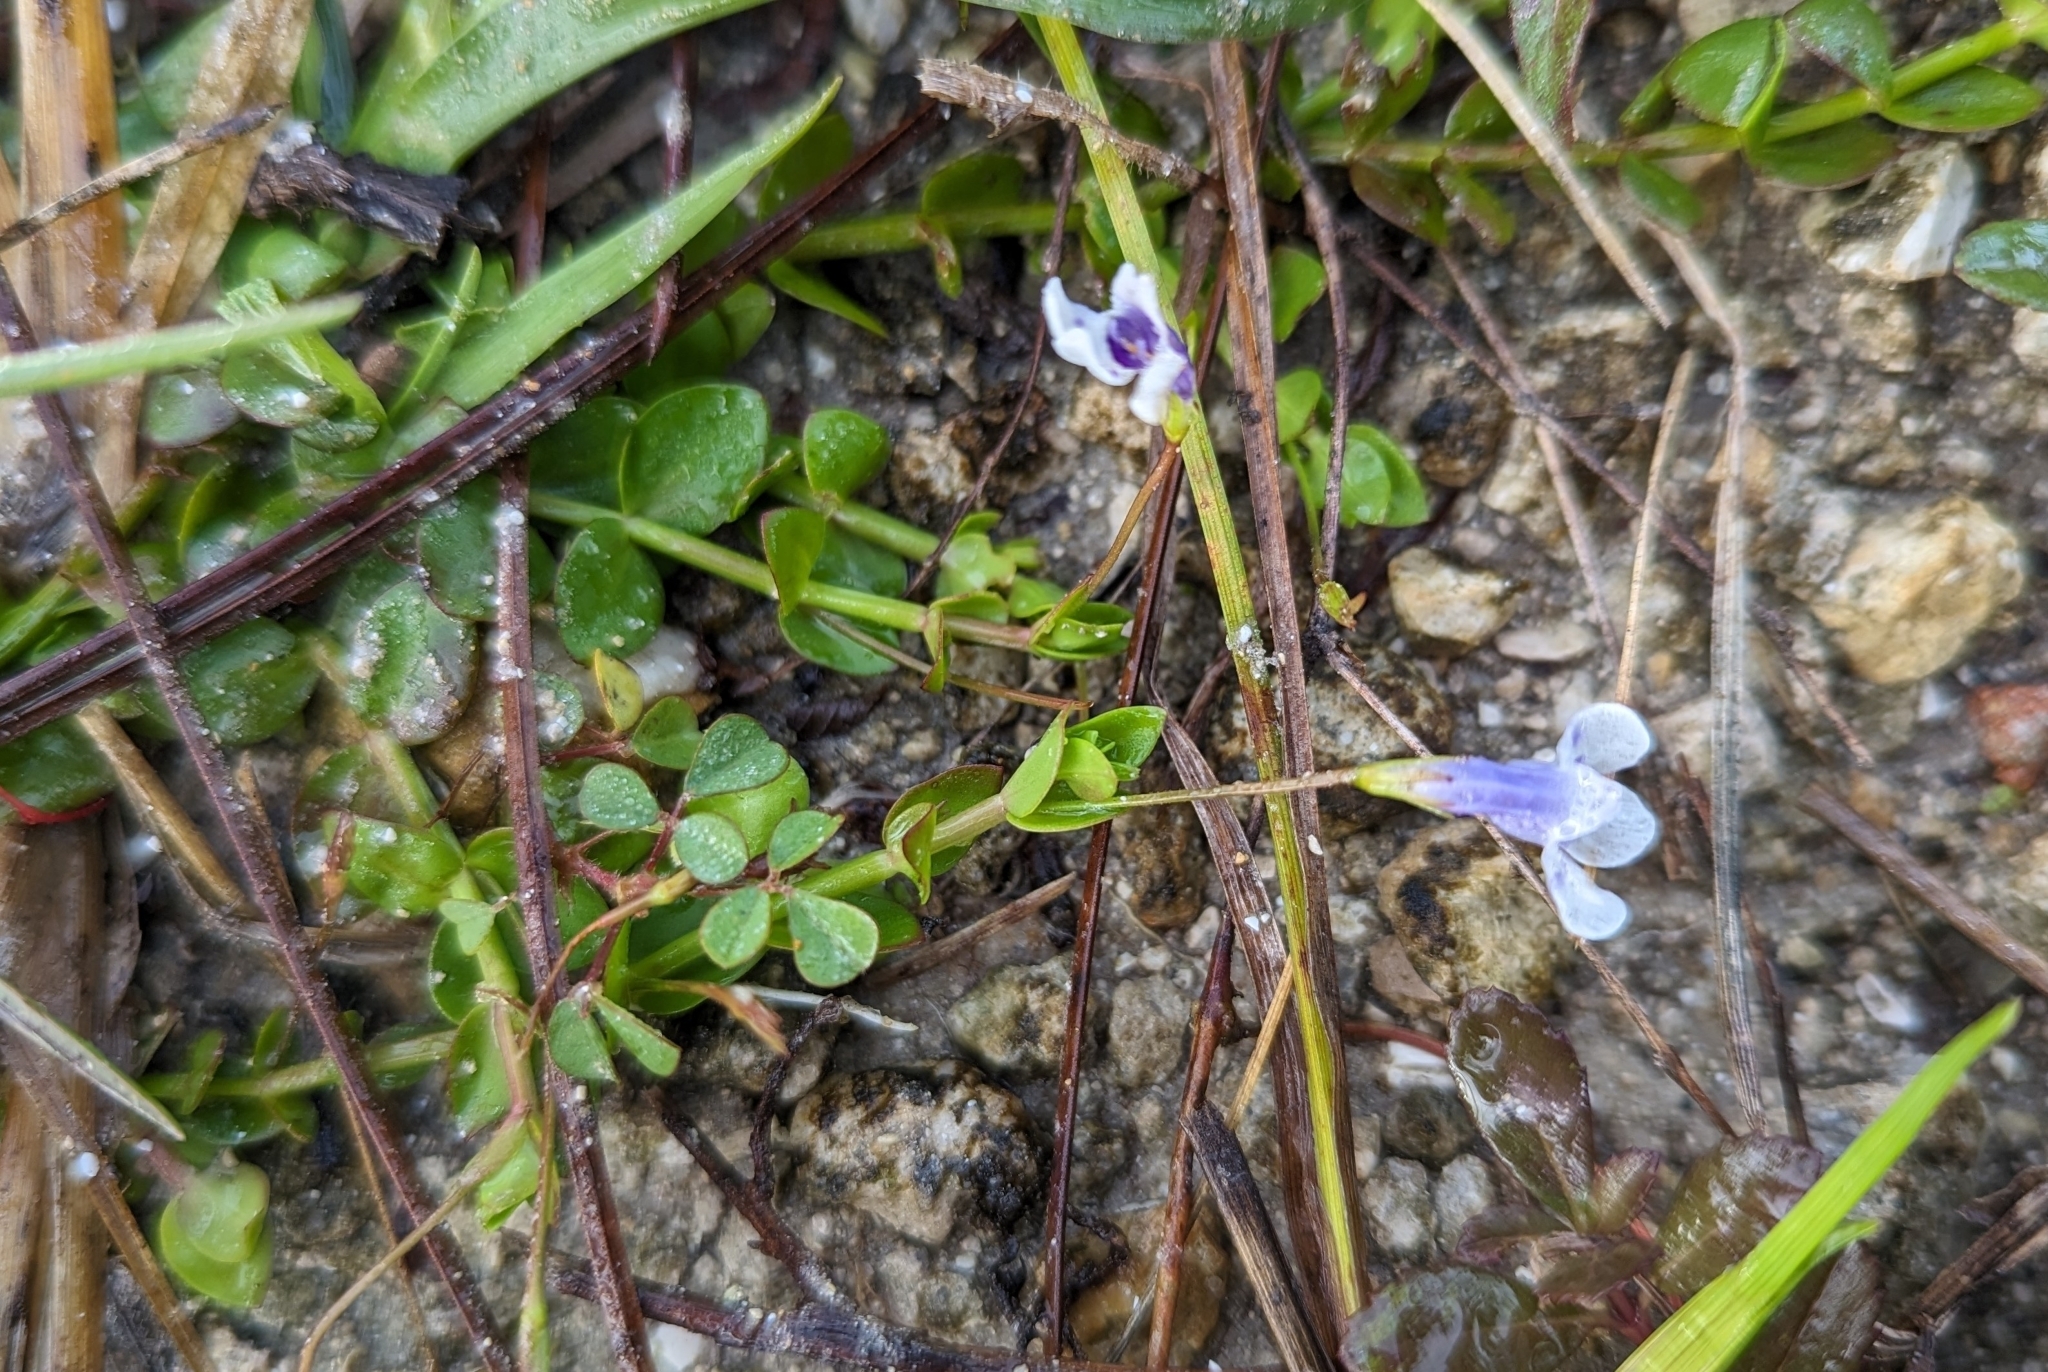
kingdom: Plantae
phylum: Tracheophyta
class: Magnoliopsida
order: Lamiales
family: Linderniaceae
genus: Lindernia
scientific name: Lindernia grandiflora
